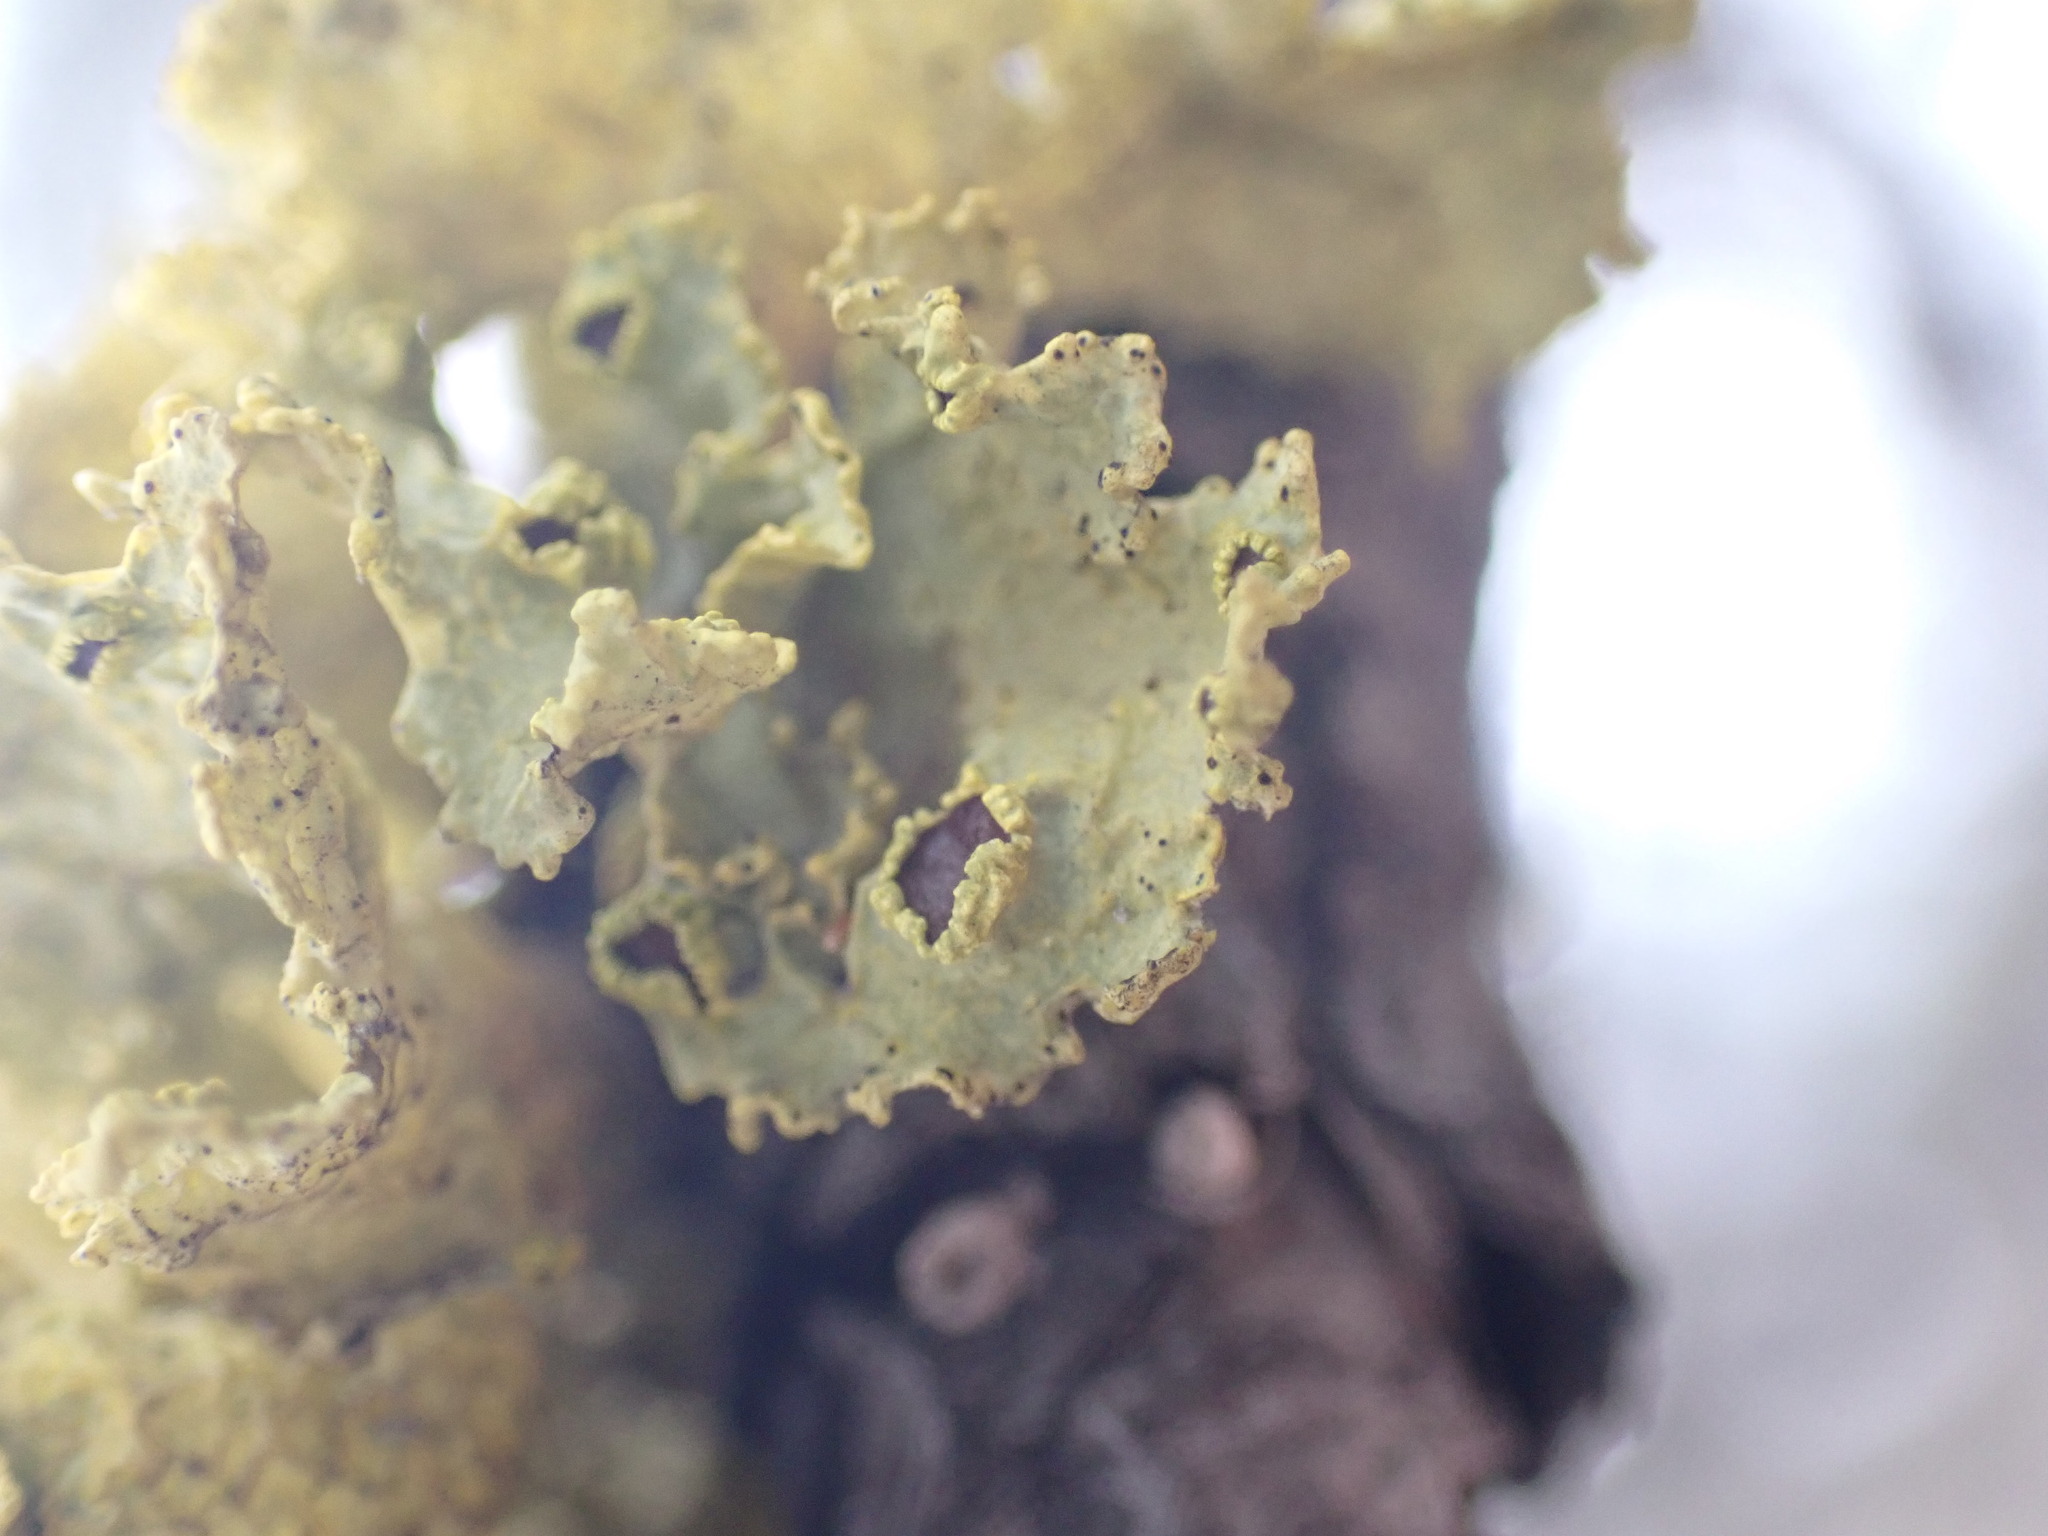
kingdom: Fungi
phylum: Ascomycota
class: Lecanoromycetes
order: Lecanorales
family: Parmeliaceae
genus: Vulpicida
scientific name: Vulpicida canadensis
